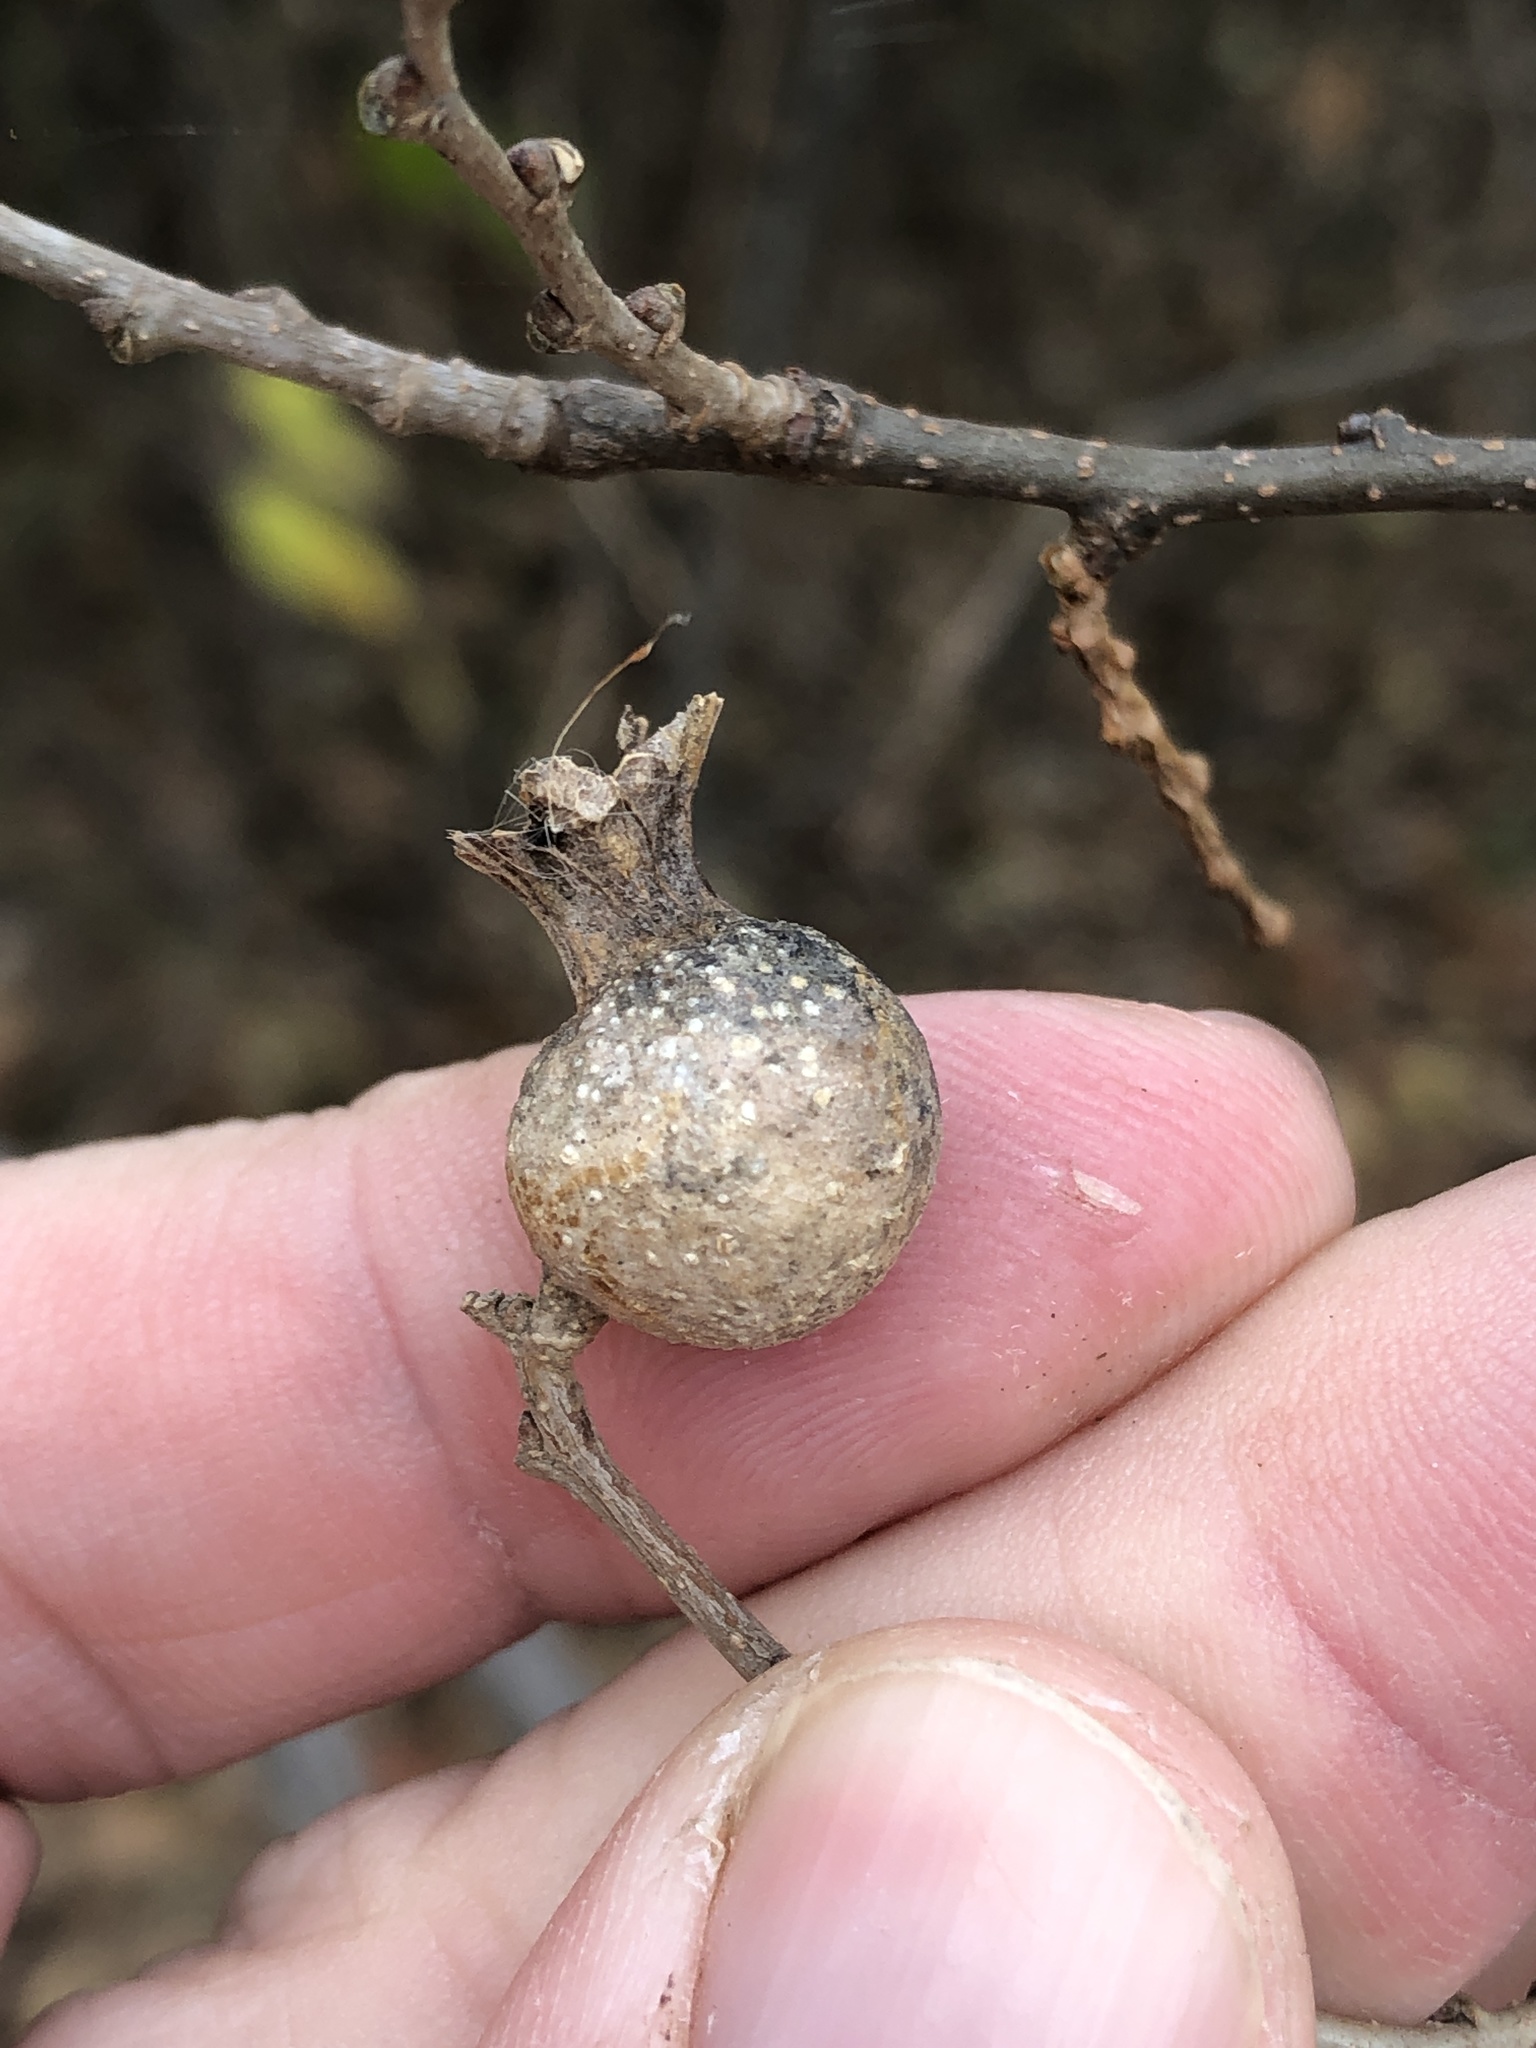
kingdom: Animalia
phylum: Arthropoda
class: Insecta
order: Hemiptera
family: Aphalaridae
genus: Pachypsylla
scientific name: Pachypsylla venusta
